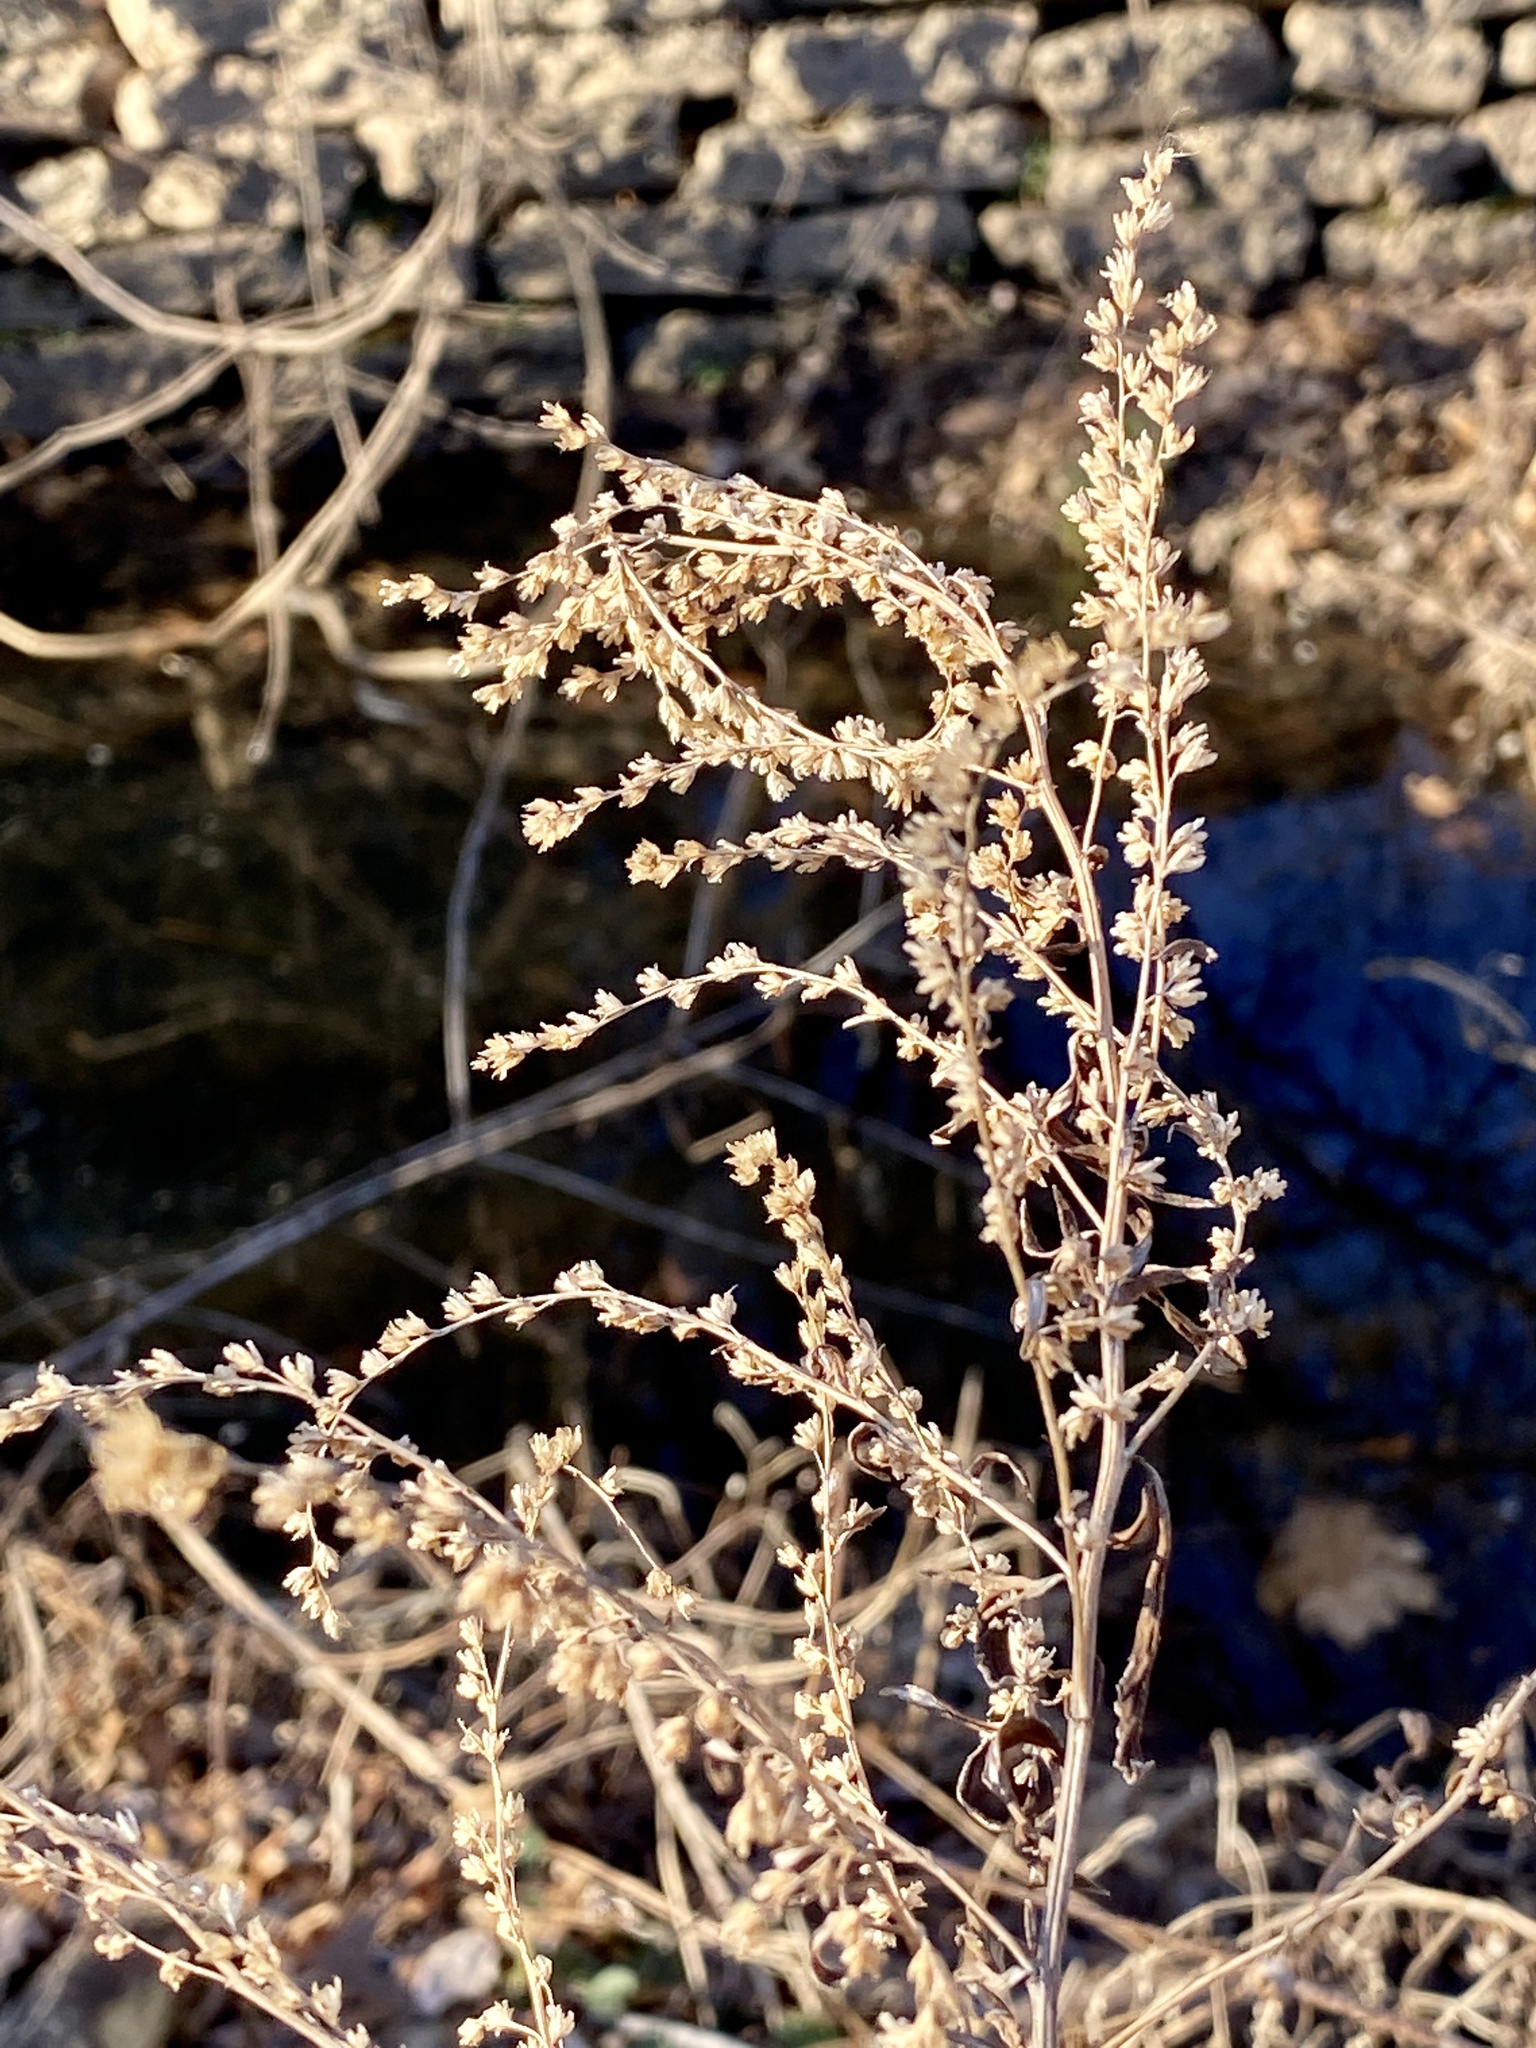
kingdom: Plantae
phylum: Tracheophyta
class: Magnoliopsida
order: Asterales
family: Asteraceae
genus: Artemisia
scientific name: Artemisia vulgaris
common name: Mugwort
